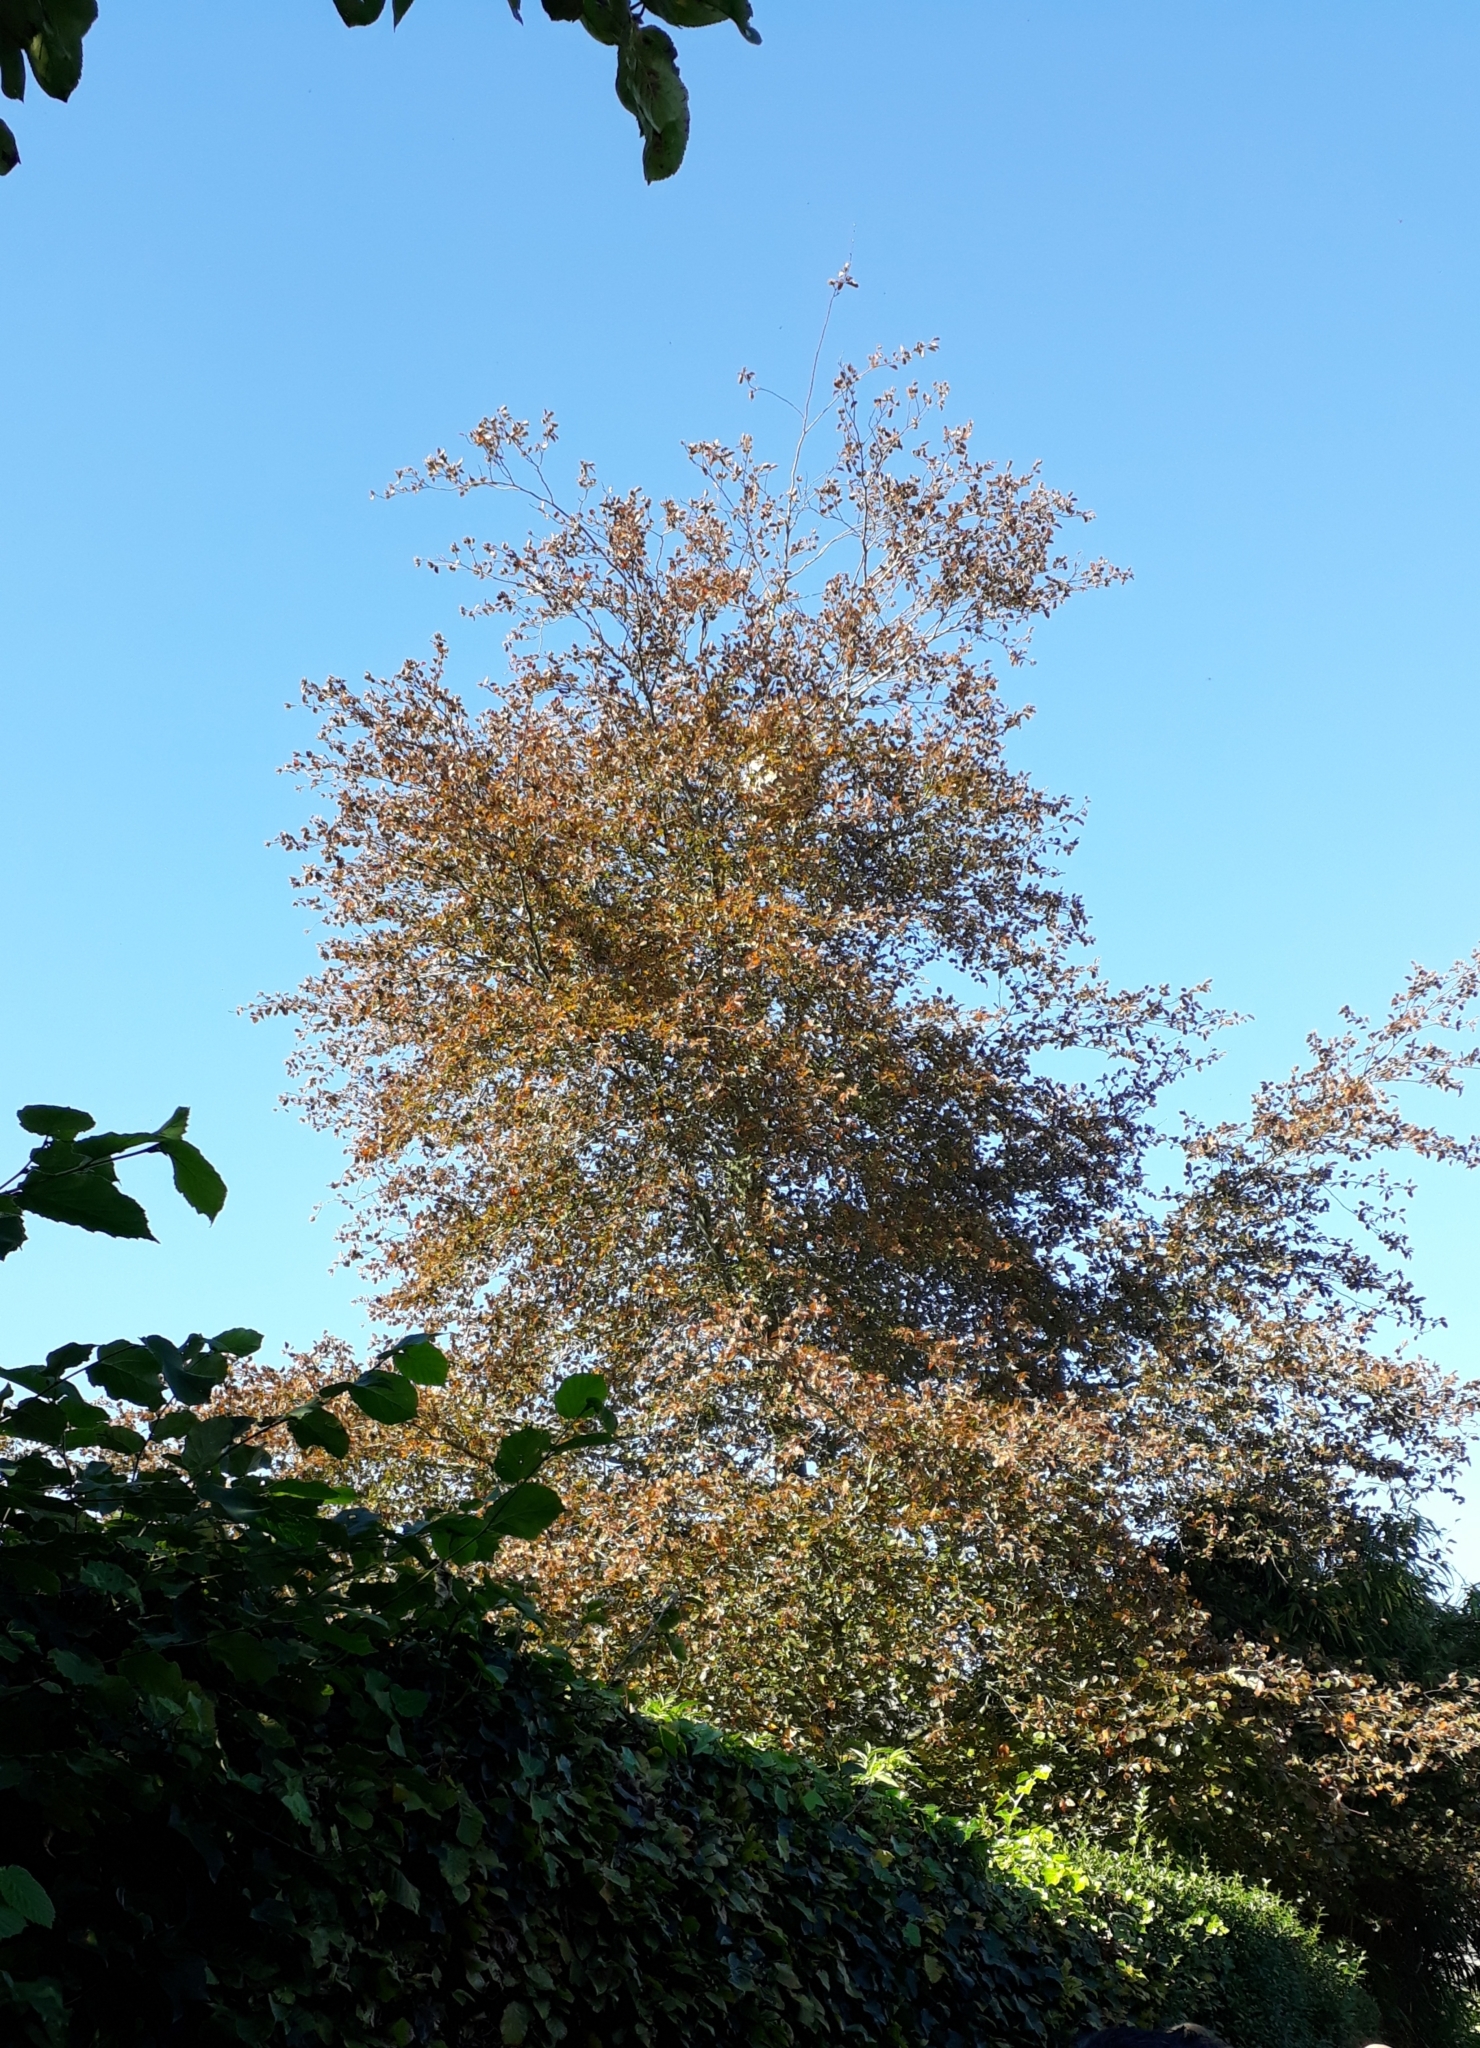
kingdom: Animalia
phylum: Arthropoda
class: Insecta
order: Hymenoptera
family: Vespidae
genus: Vespa
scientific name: Vespa velutina
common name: Asian hornet
